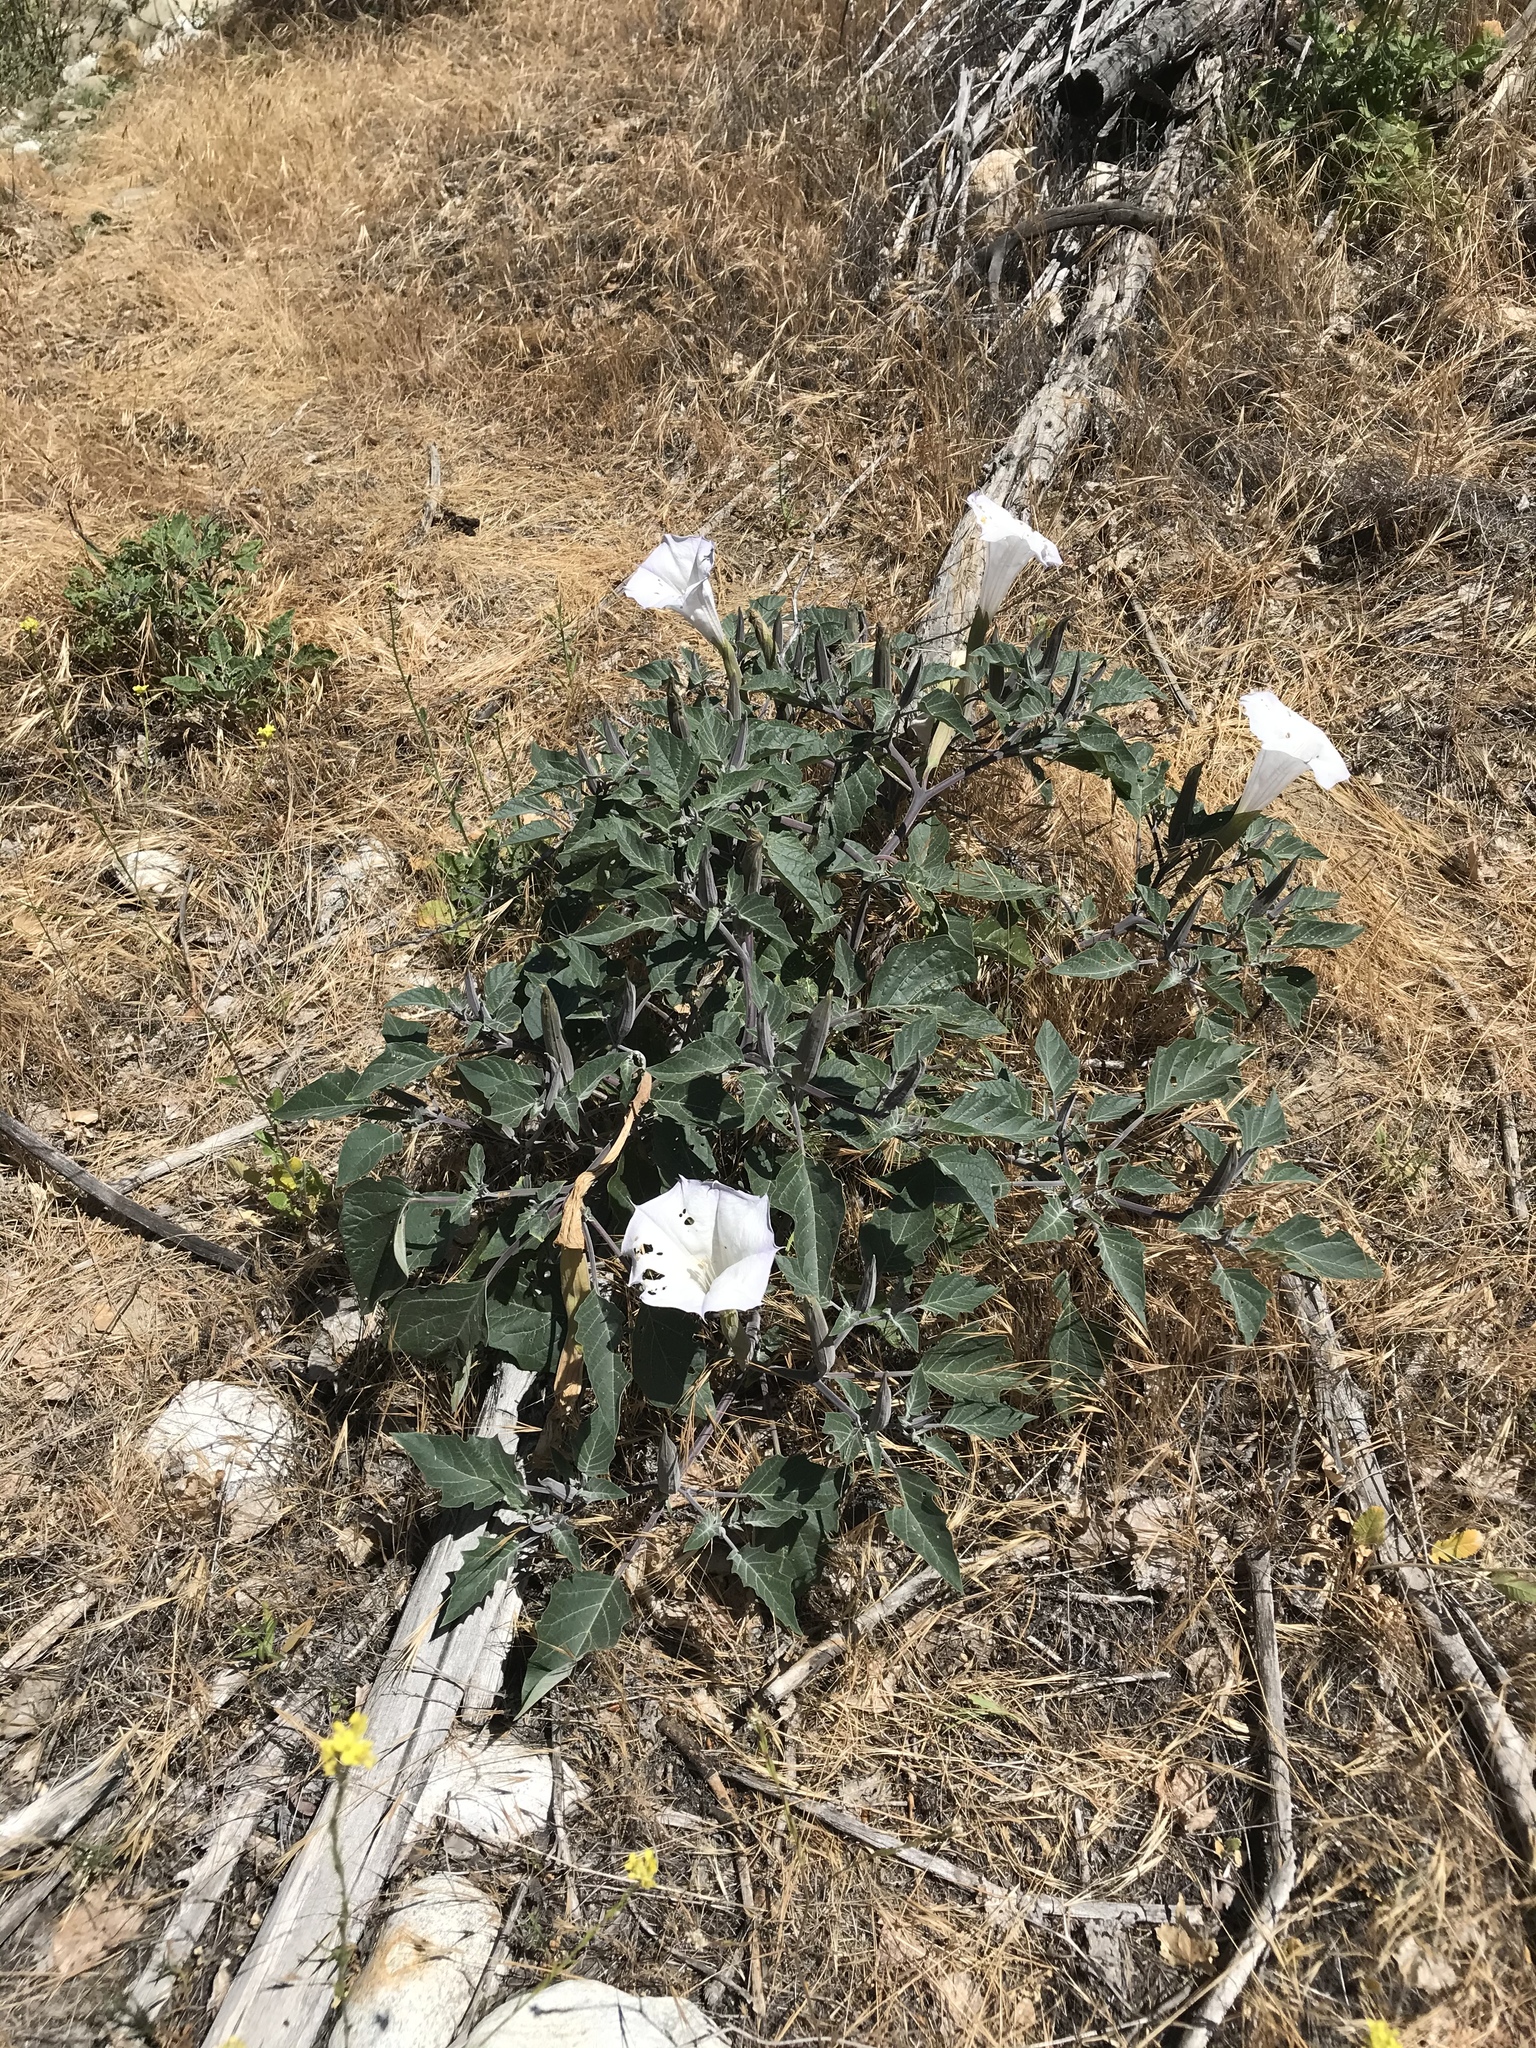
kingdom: Plantae
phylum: Tracheophyta
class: Magnoliopsida
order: Solanales
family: Solanaceae
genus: Datura
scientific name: Datura wrightii
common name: Sacred thorn-apple
